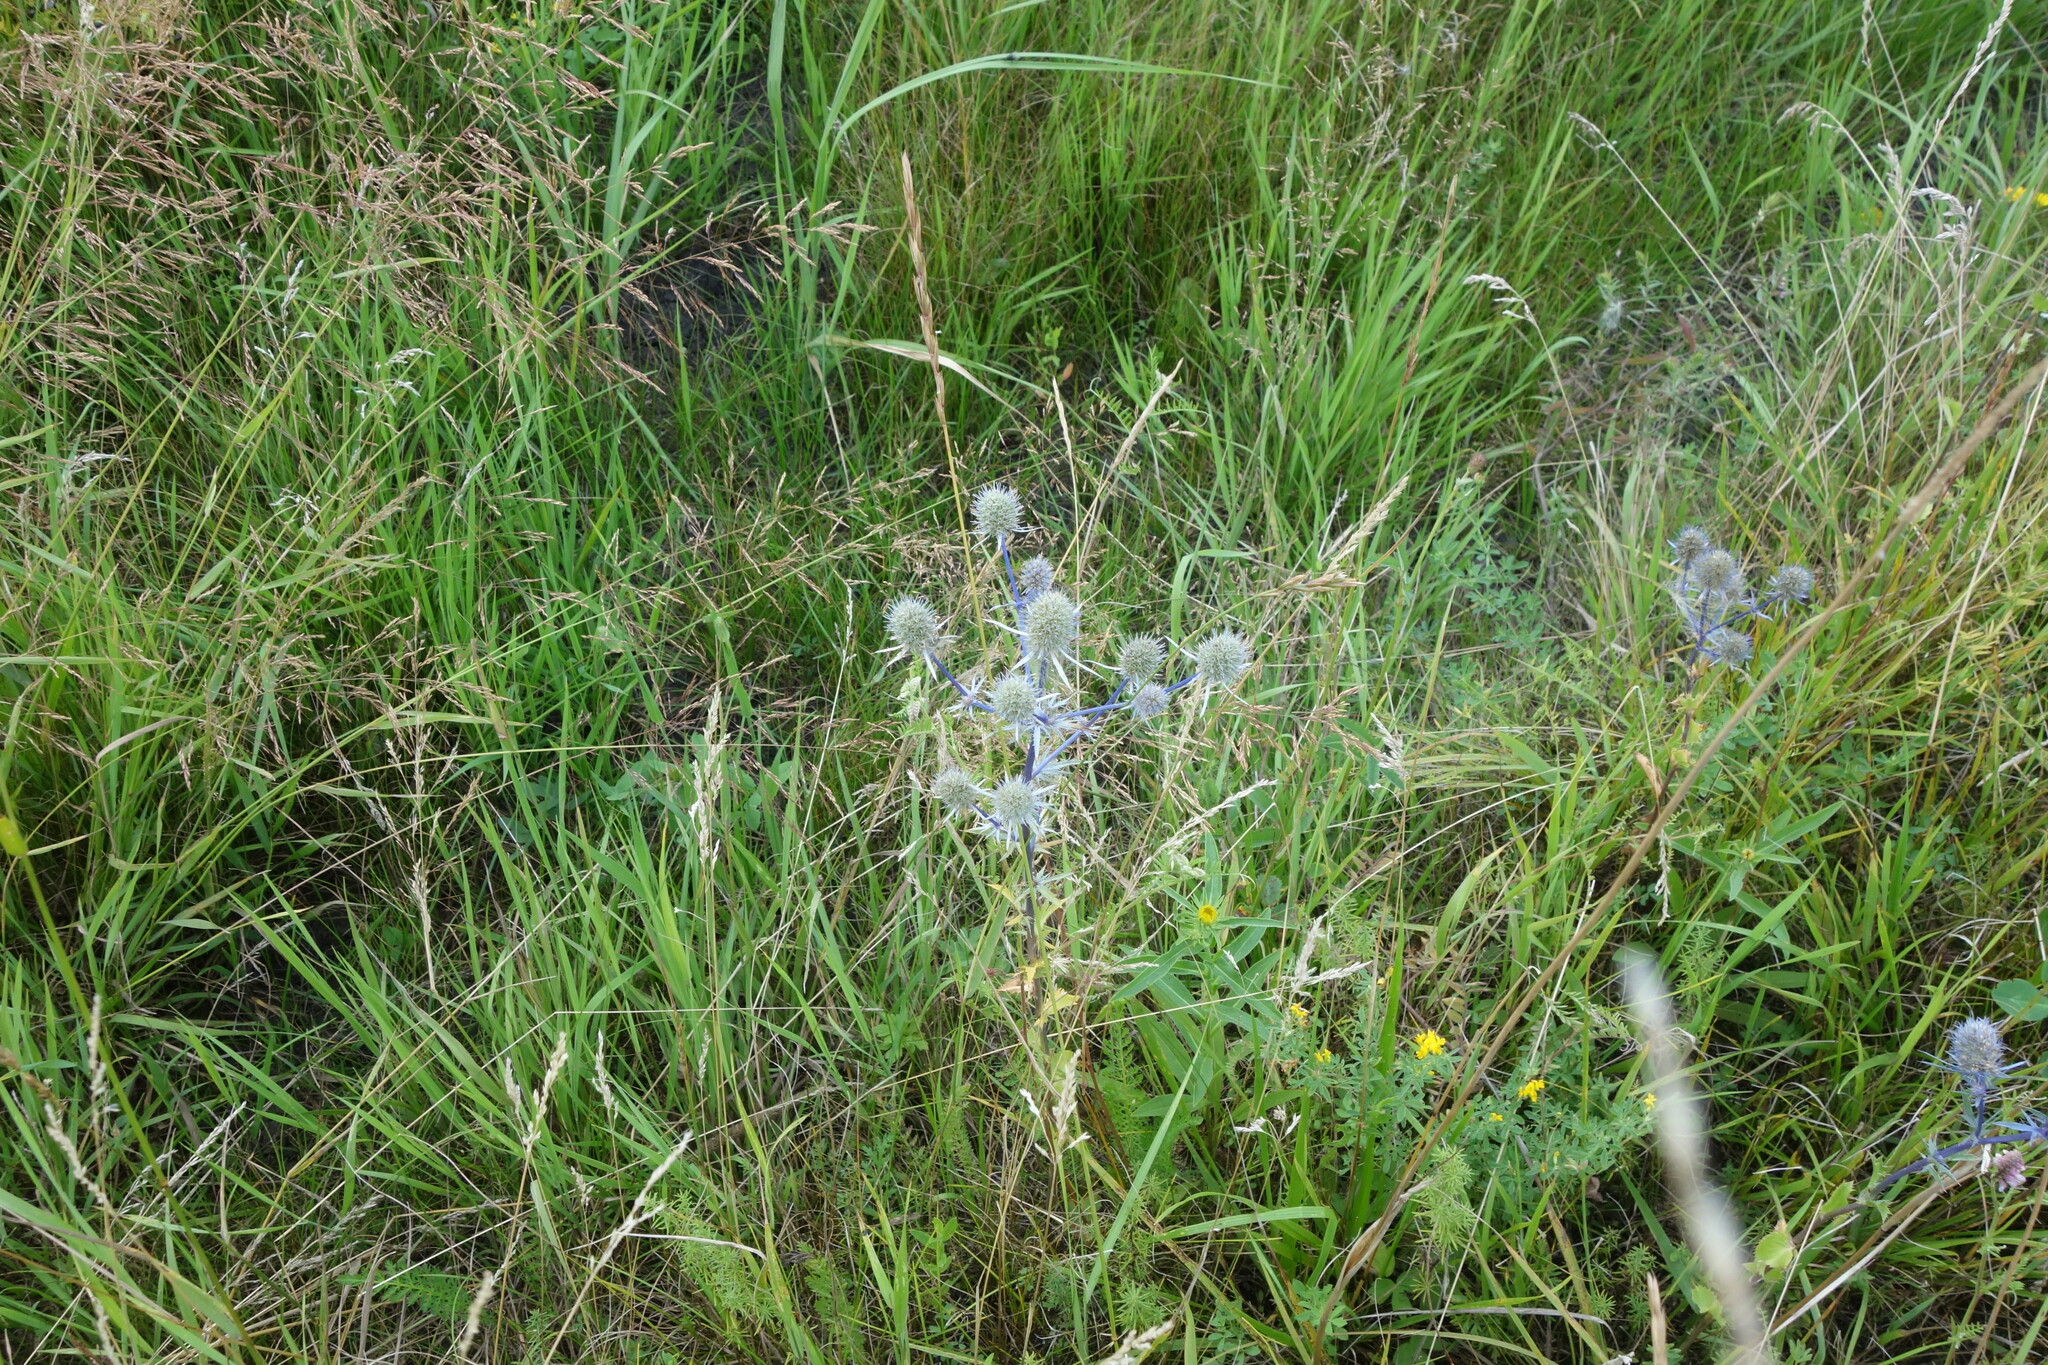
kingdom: Plantae
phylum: Tracheophyta
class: Magnoliopsida
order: Apiales
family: Apiaceae
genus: Eryngium
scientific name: Eryngium planum
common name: Blue eryngo
